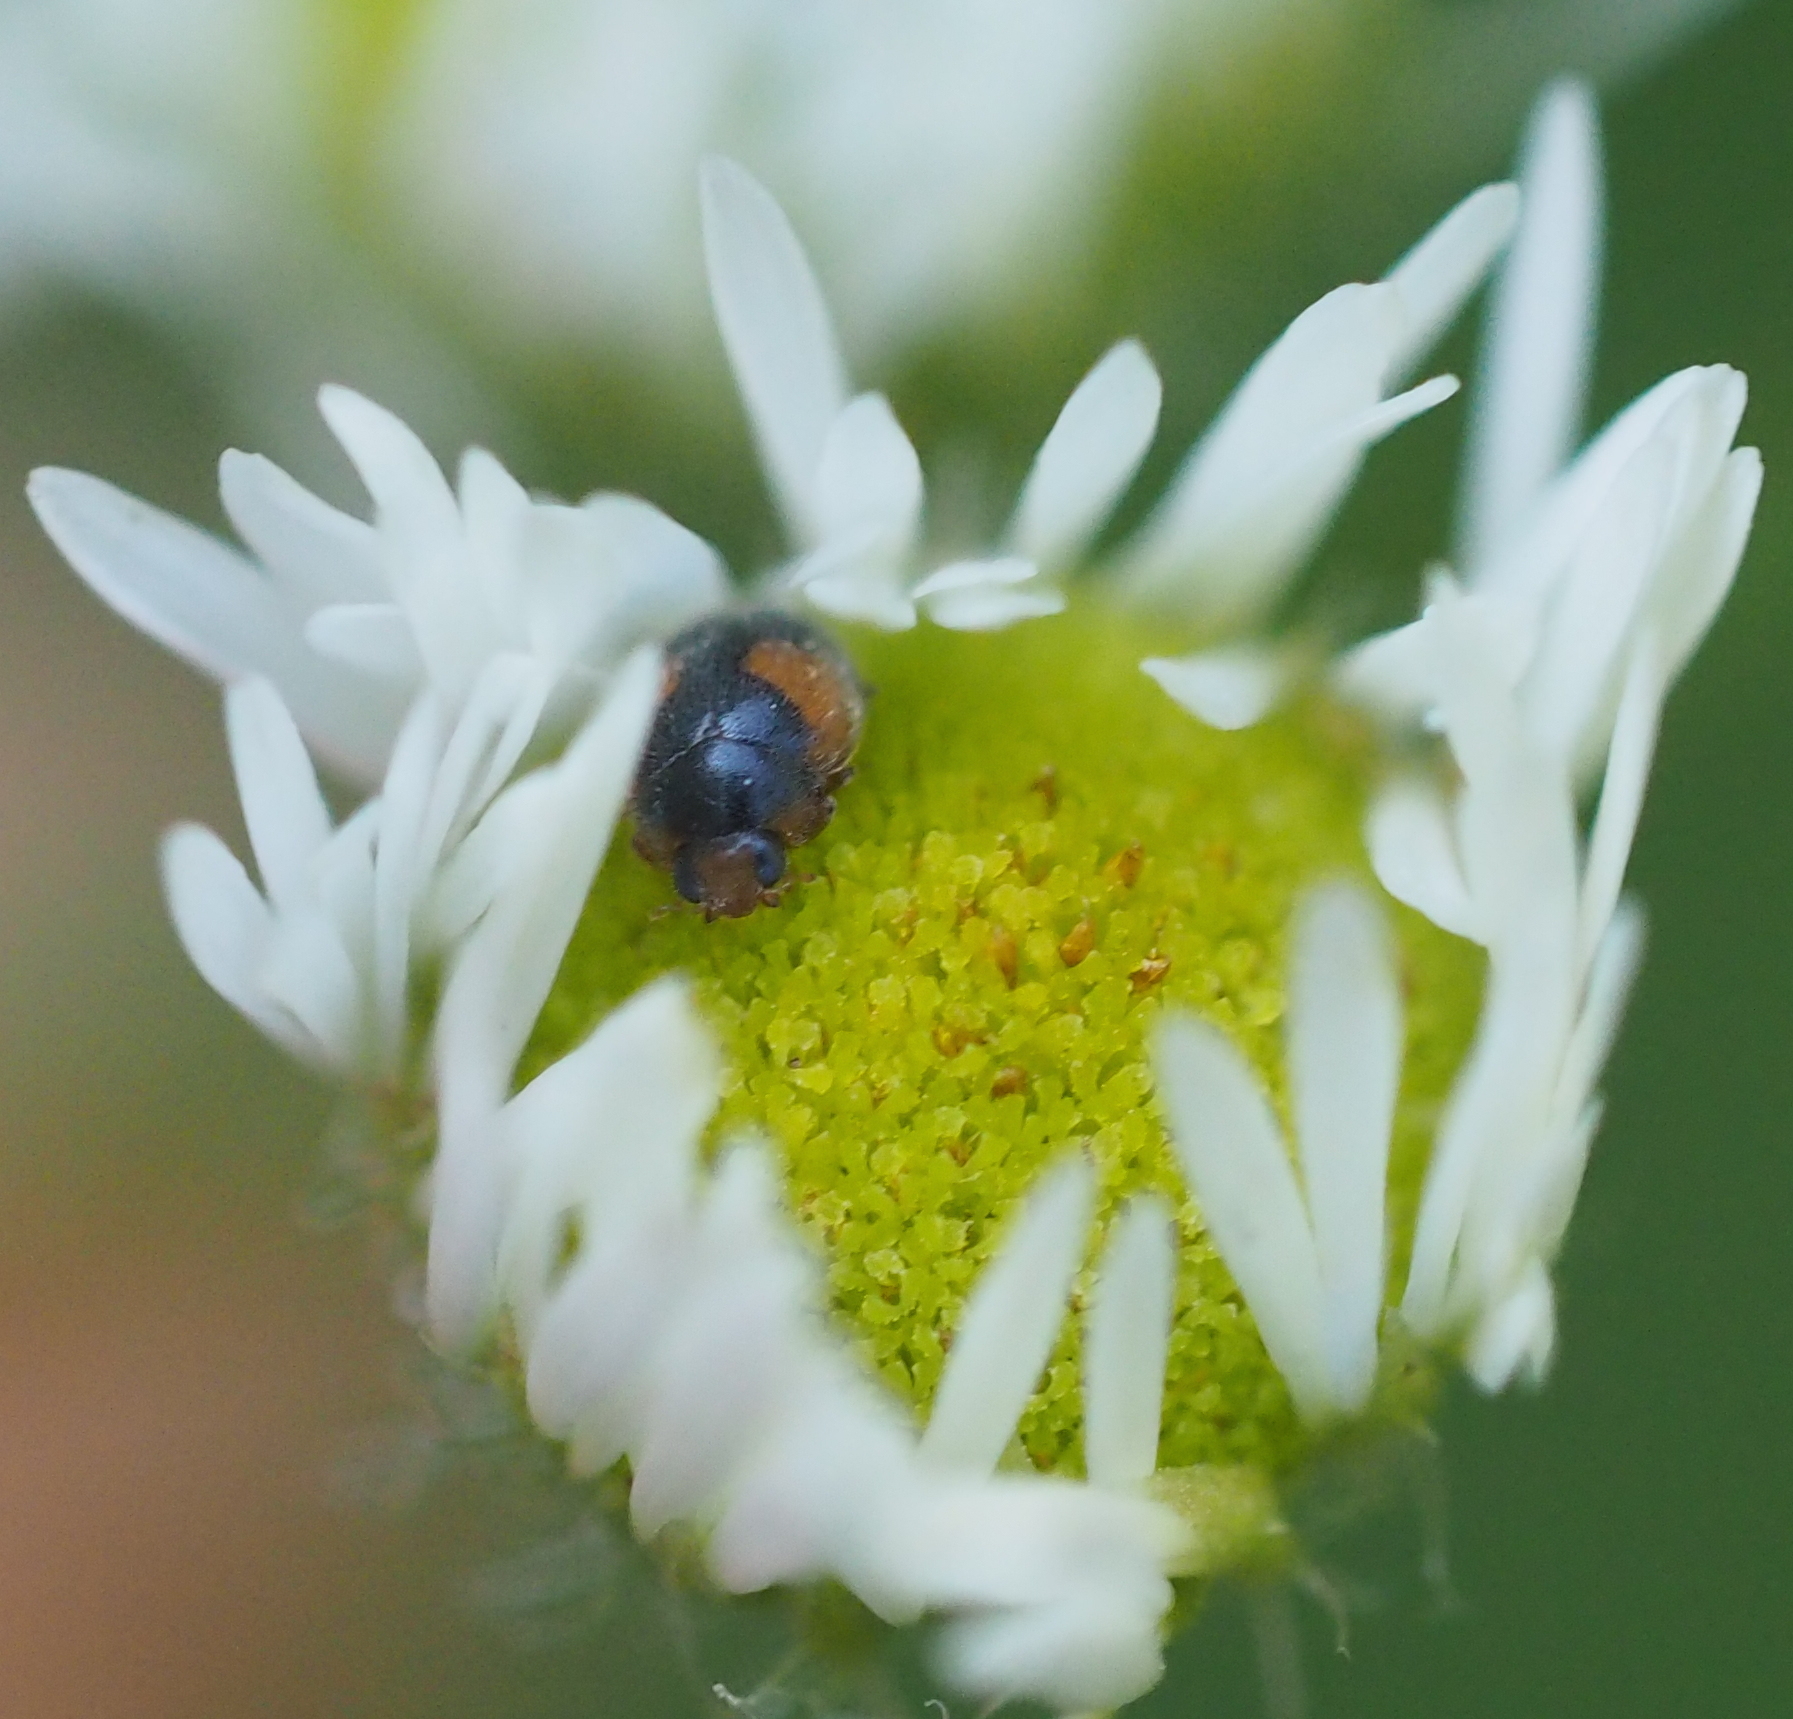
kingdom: Animalia
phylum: Arthropoda
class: Insecta
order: Coleoptera
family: Coccinellidae
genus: Scymnus
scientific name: Scymnus interruptus
